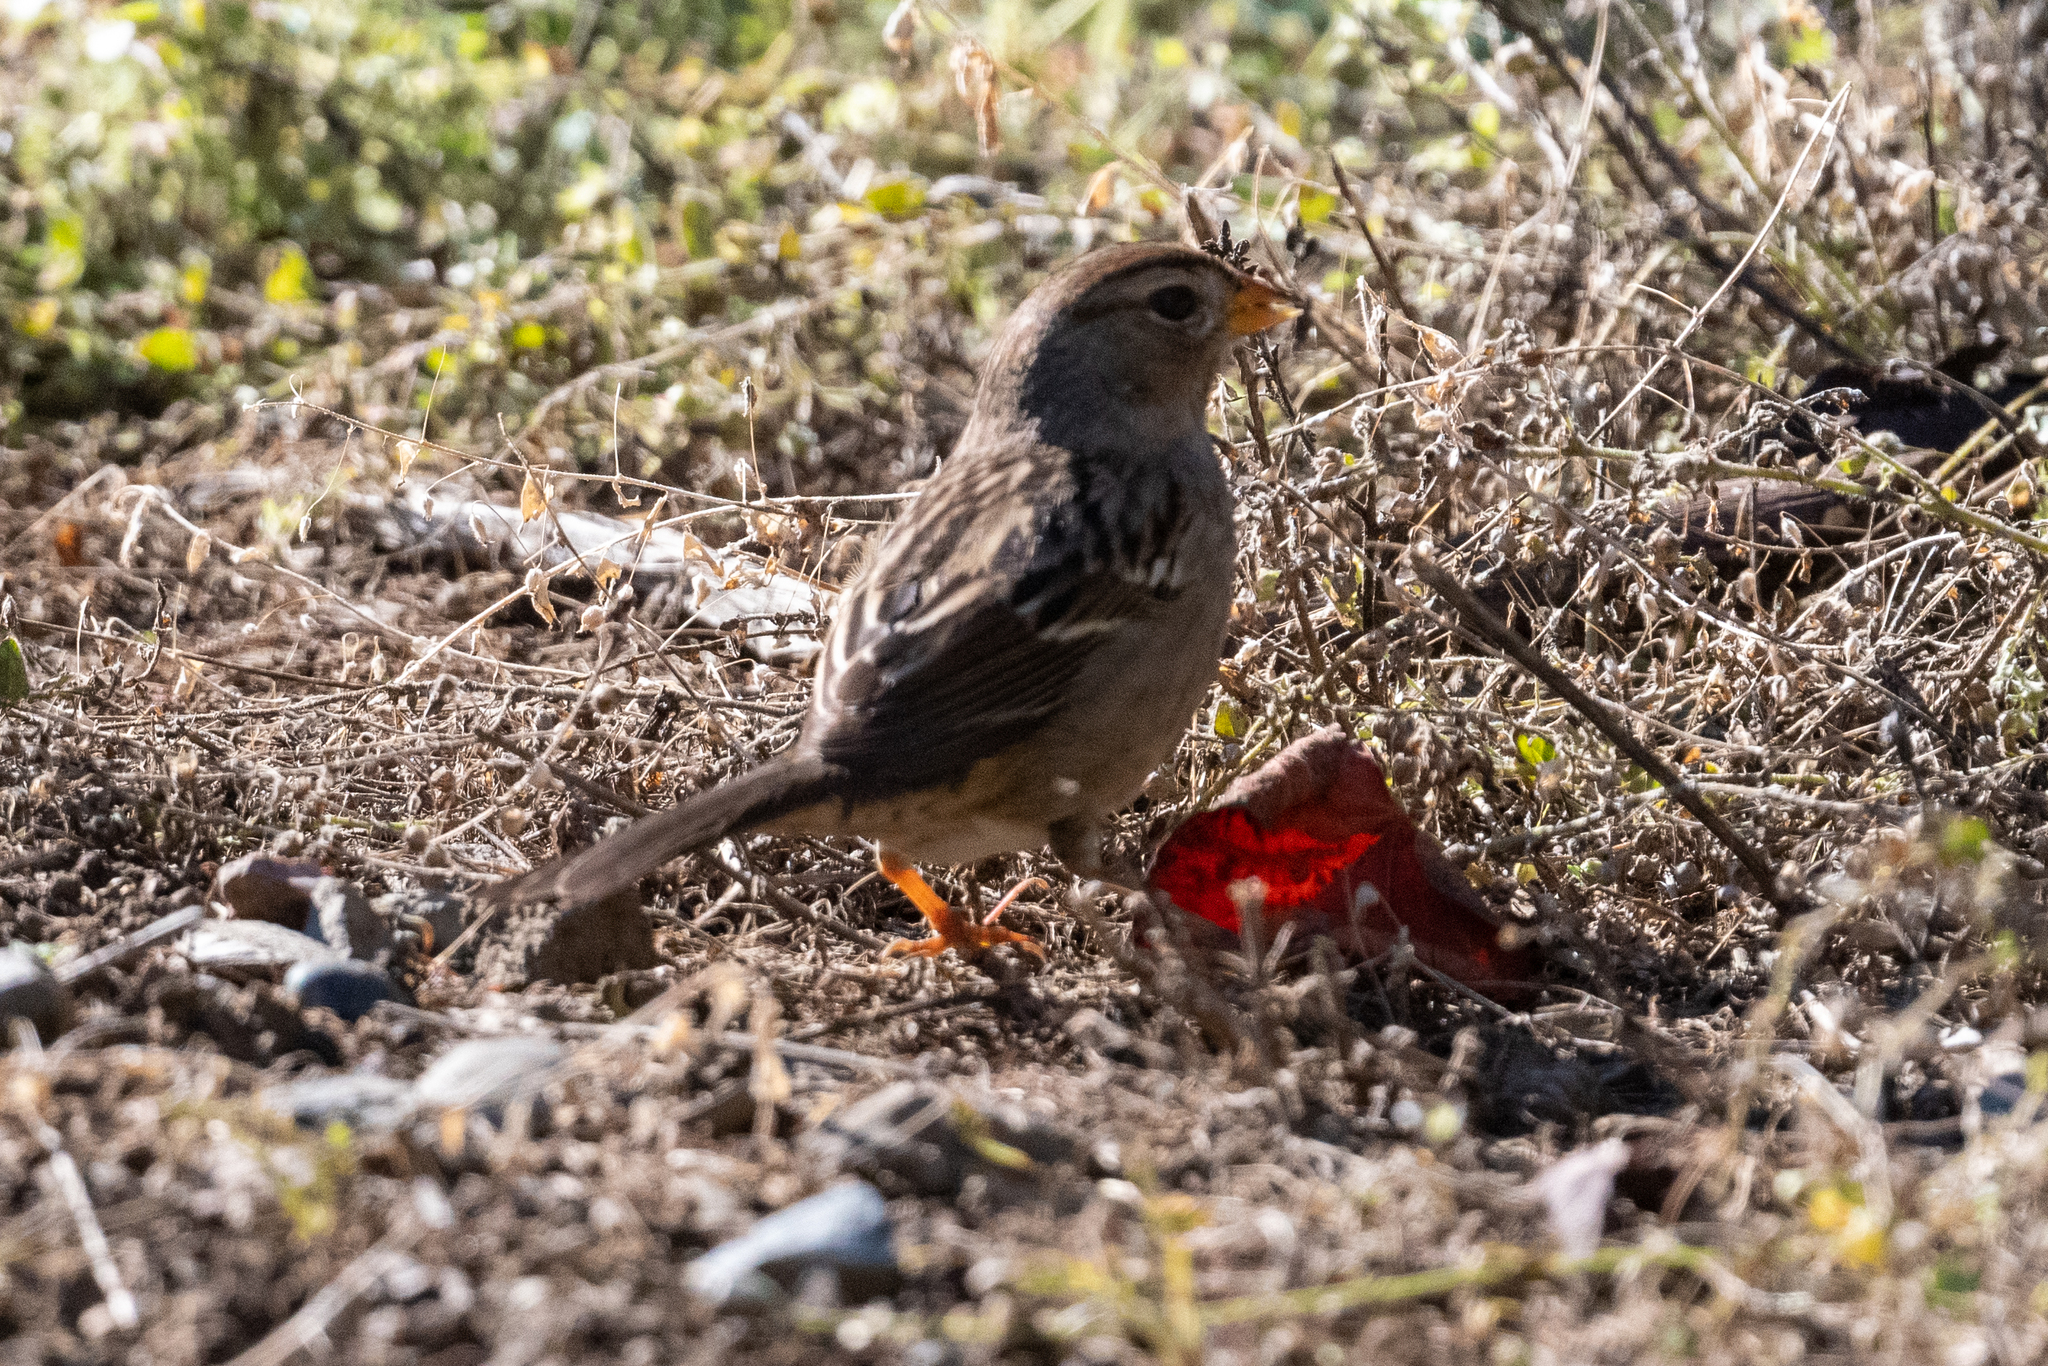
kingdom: Animalia
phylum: Chordata
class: Aves
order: Passeriformes
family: Passerellidae
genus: Zonotrichia
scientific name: Zonotrichia leucophrys
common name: White-crowned sparrow
